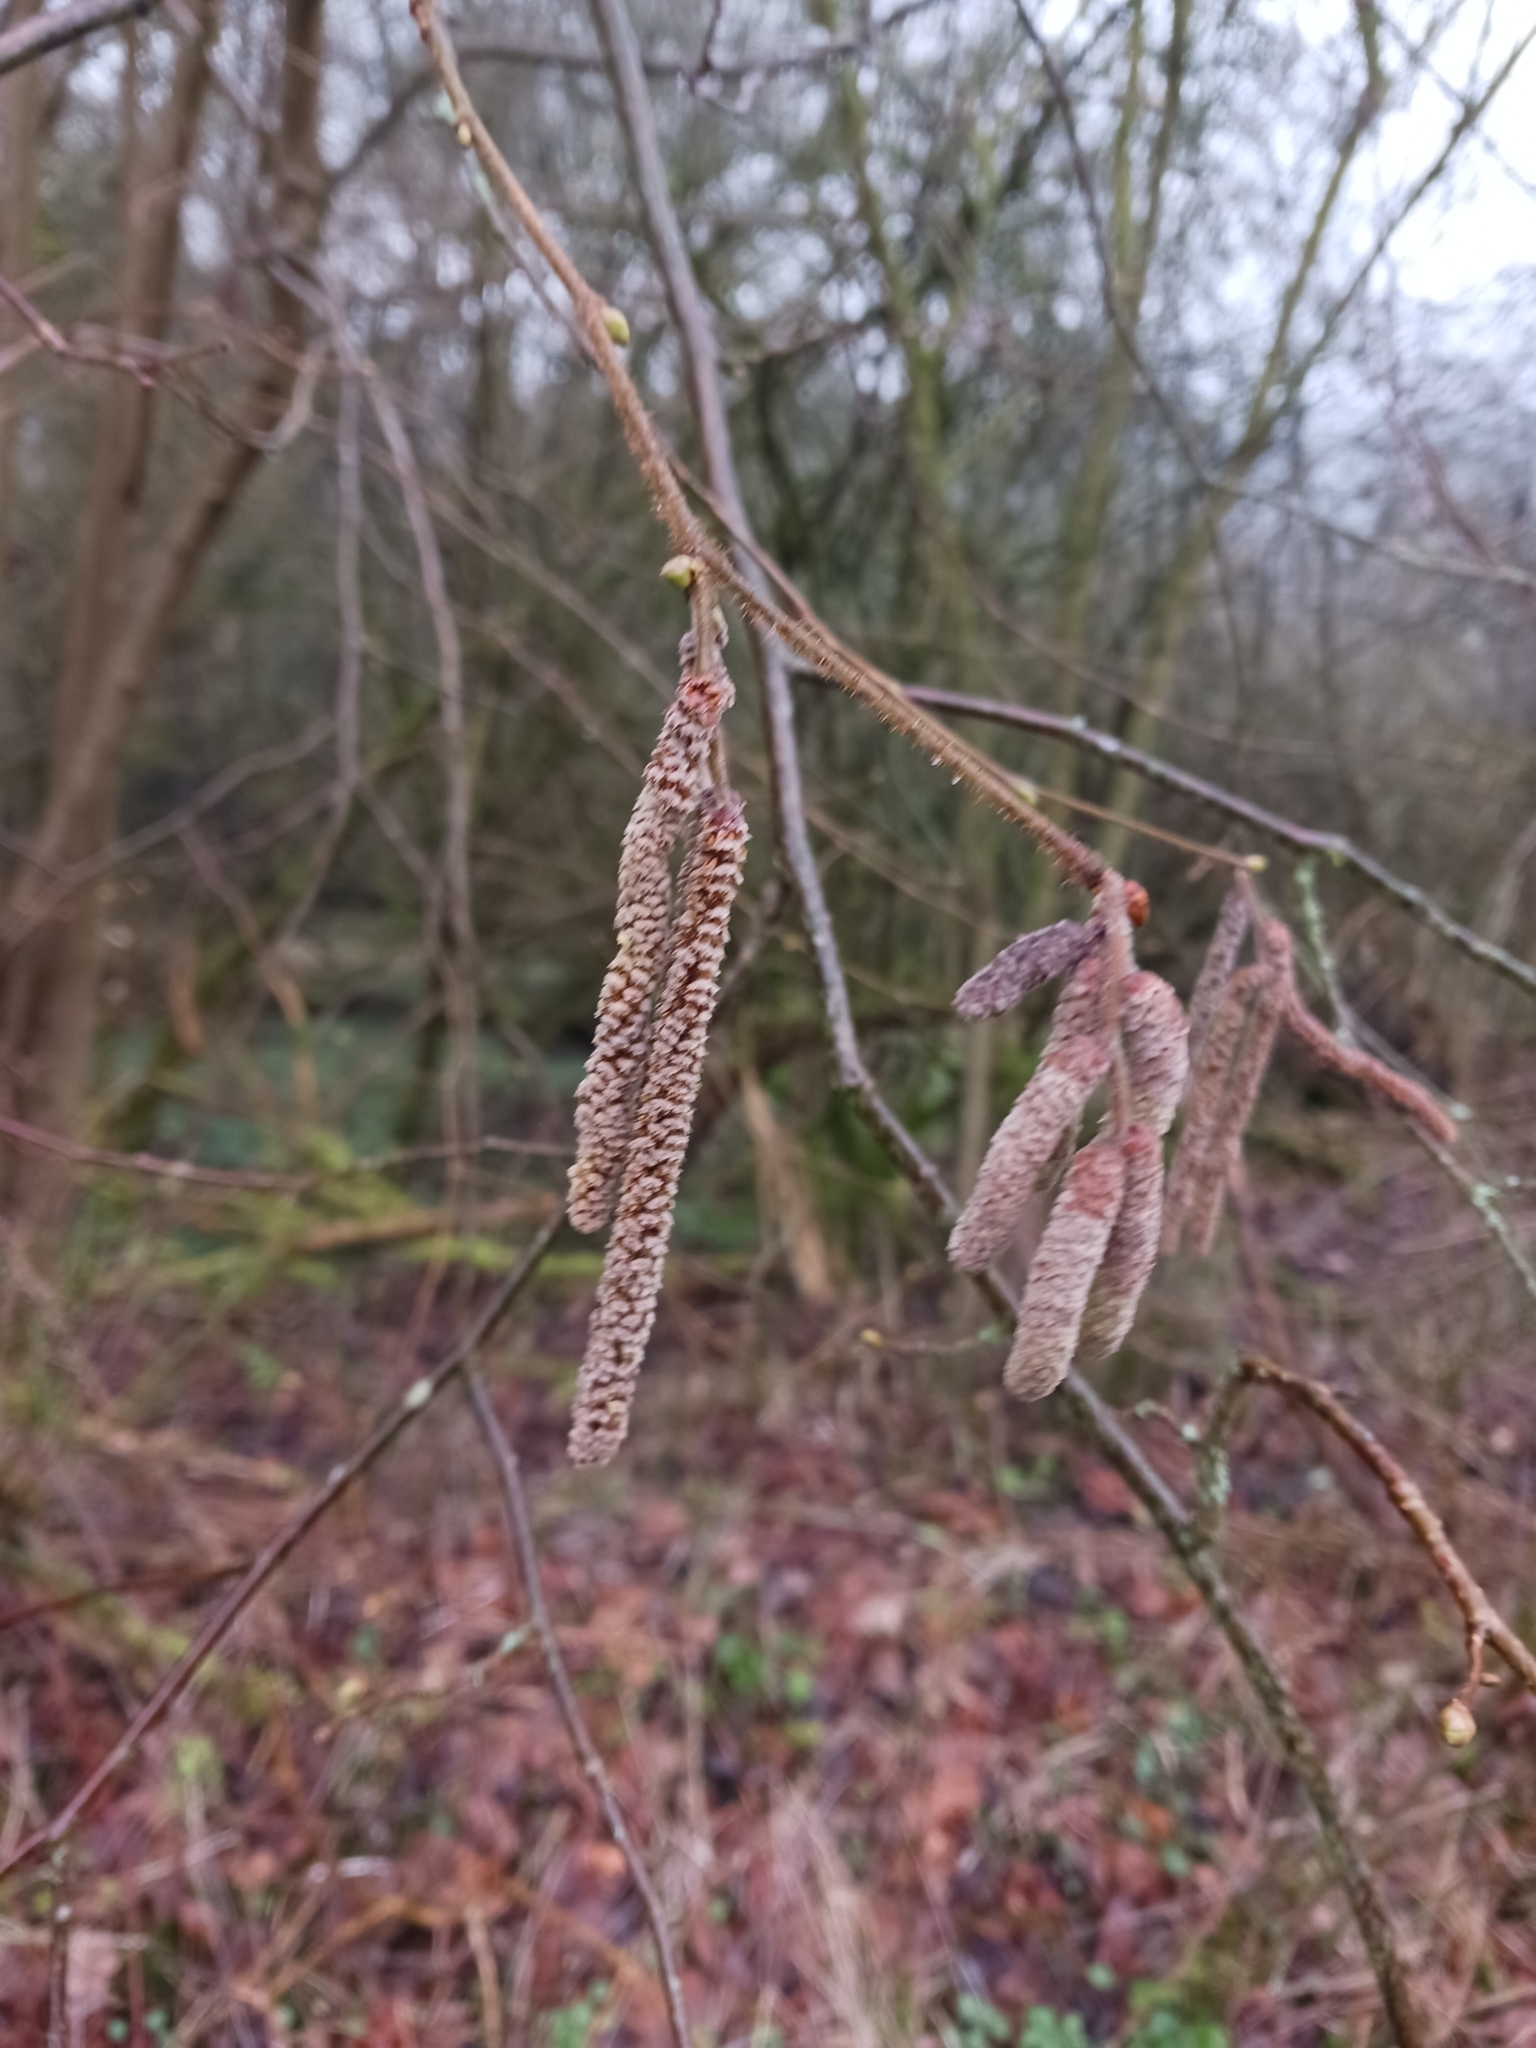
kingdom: Plantae
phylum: Tracheophyta
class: Magnoliopsida
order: Fagales
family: Betulaceae
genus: Corylus
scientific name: Corylus avellana
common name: European hazel
